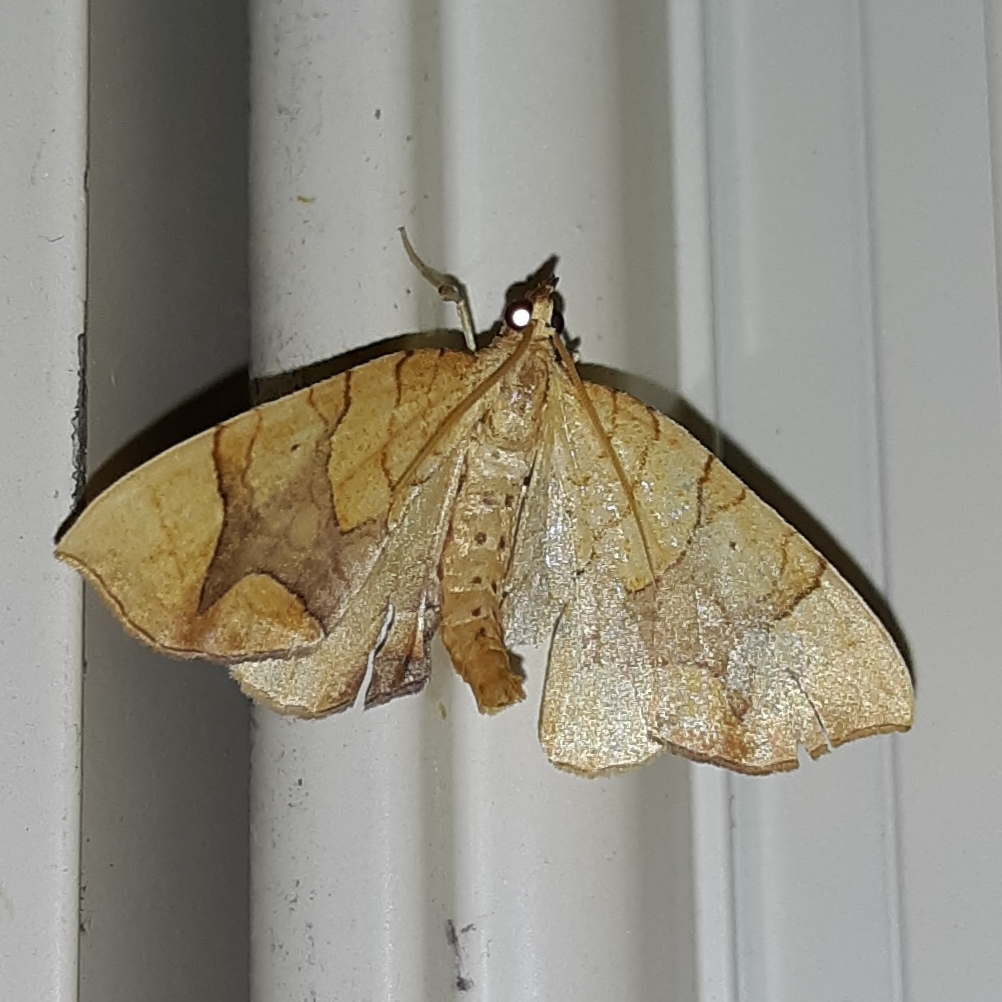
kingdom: Animalia
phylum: Arthropoda
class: Insecta
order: Lepidoptera
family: Geometridae
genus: Eulithis
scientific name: Eulithis
